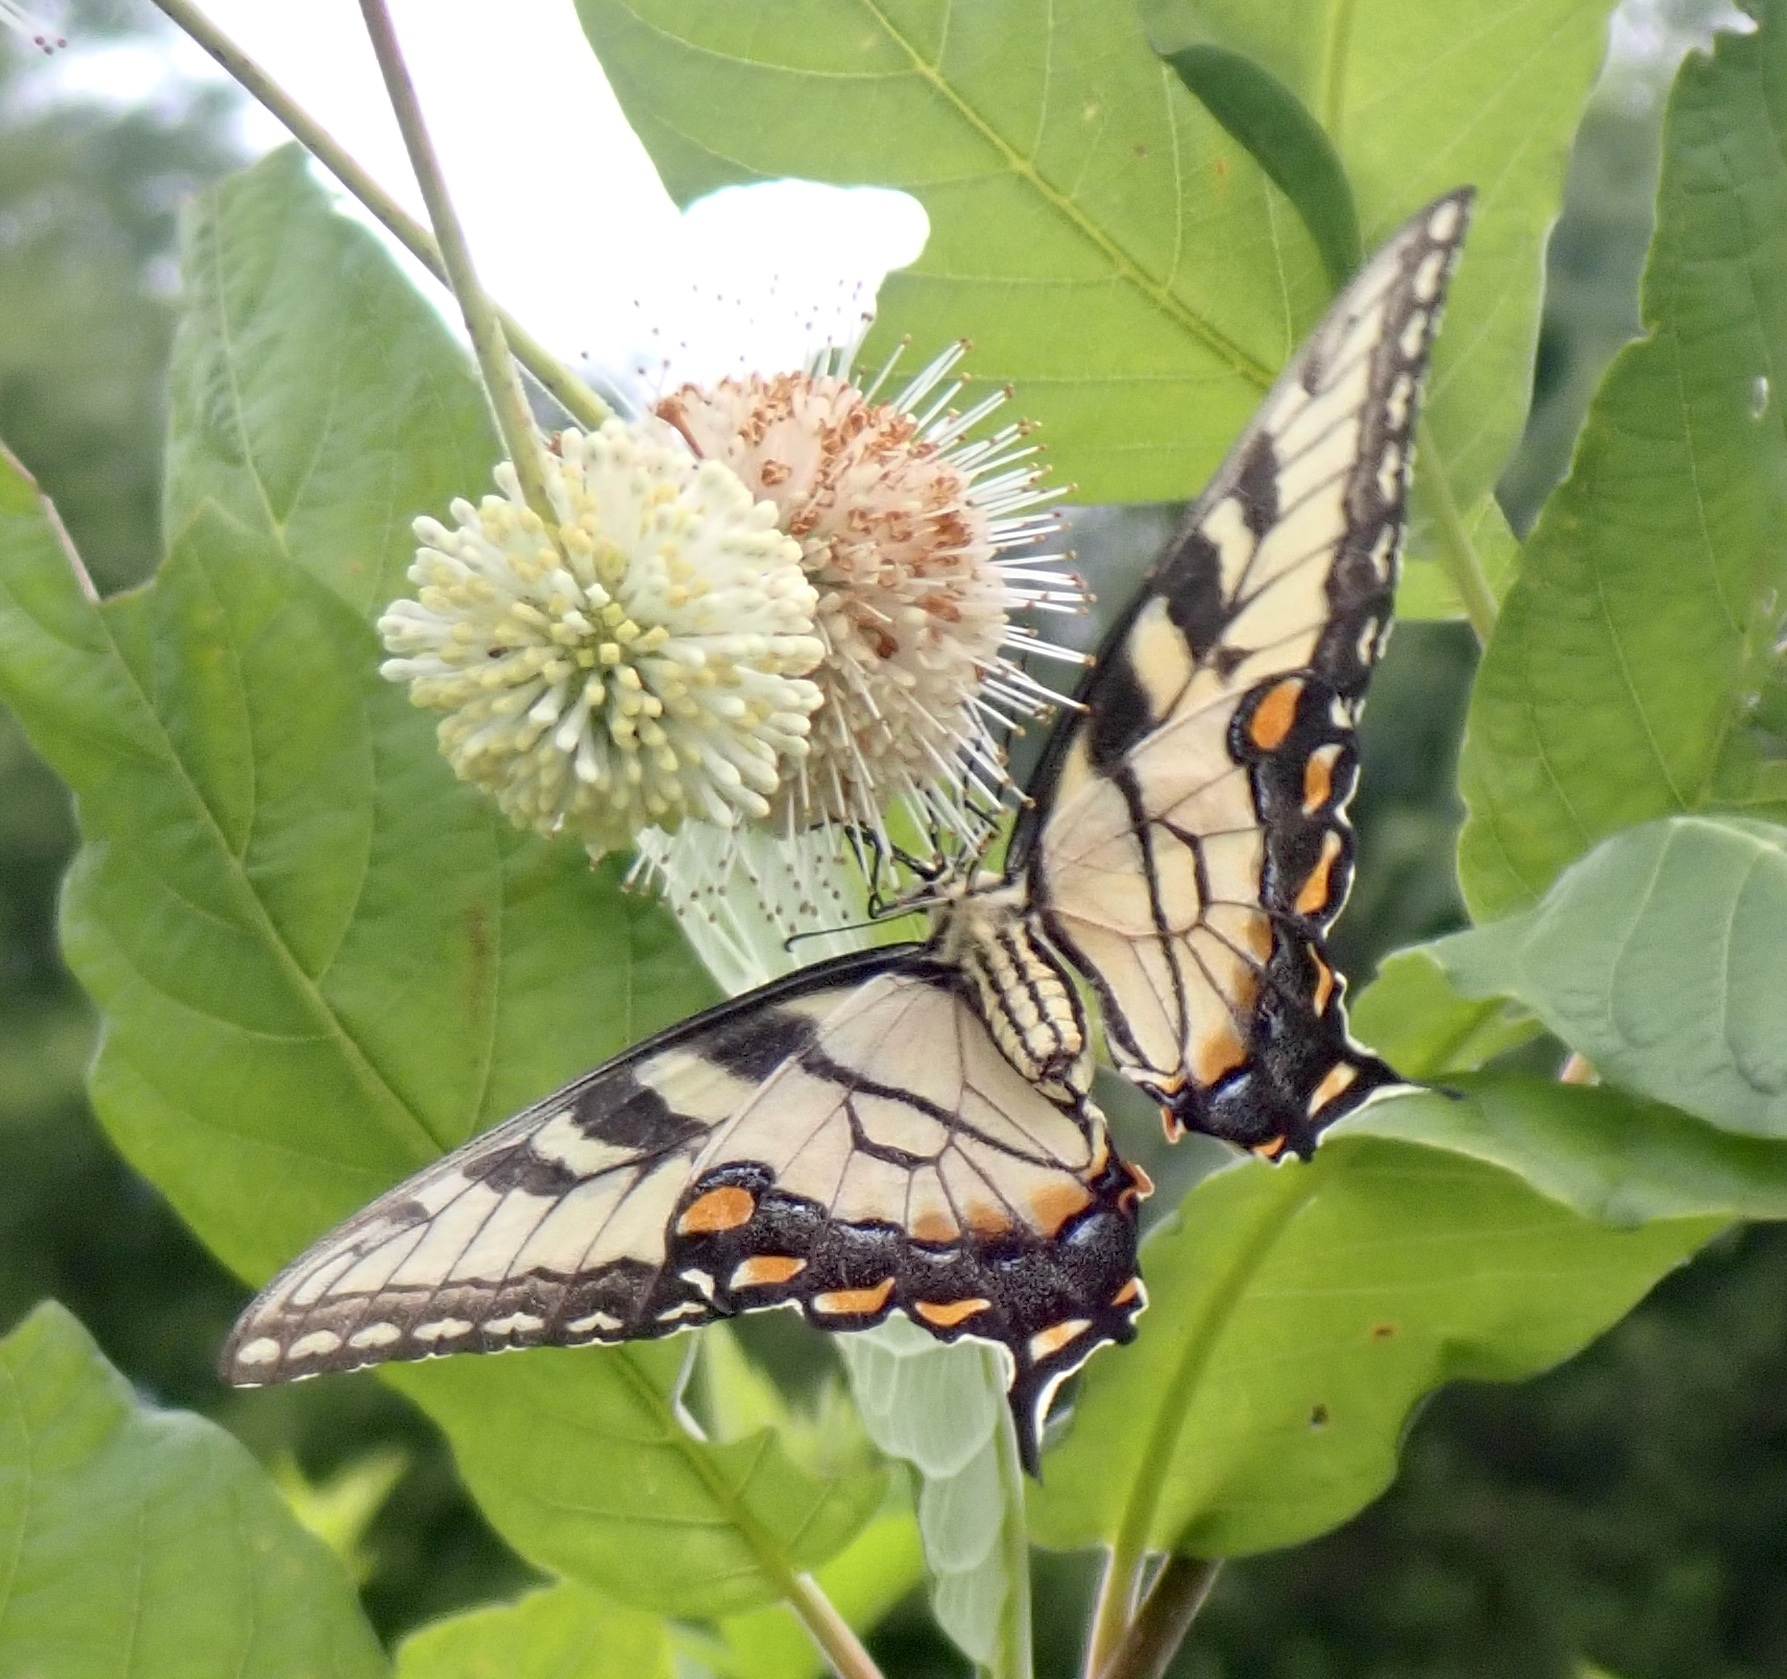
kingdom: Animalia
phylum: Arthropoda
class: Insecta
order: Lepidoptera
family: Papilionidae
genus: Papilio
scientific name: Papilio glaucus
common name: Tiger swallowtail
